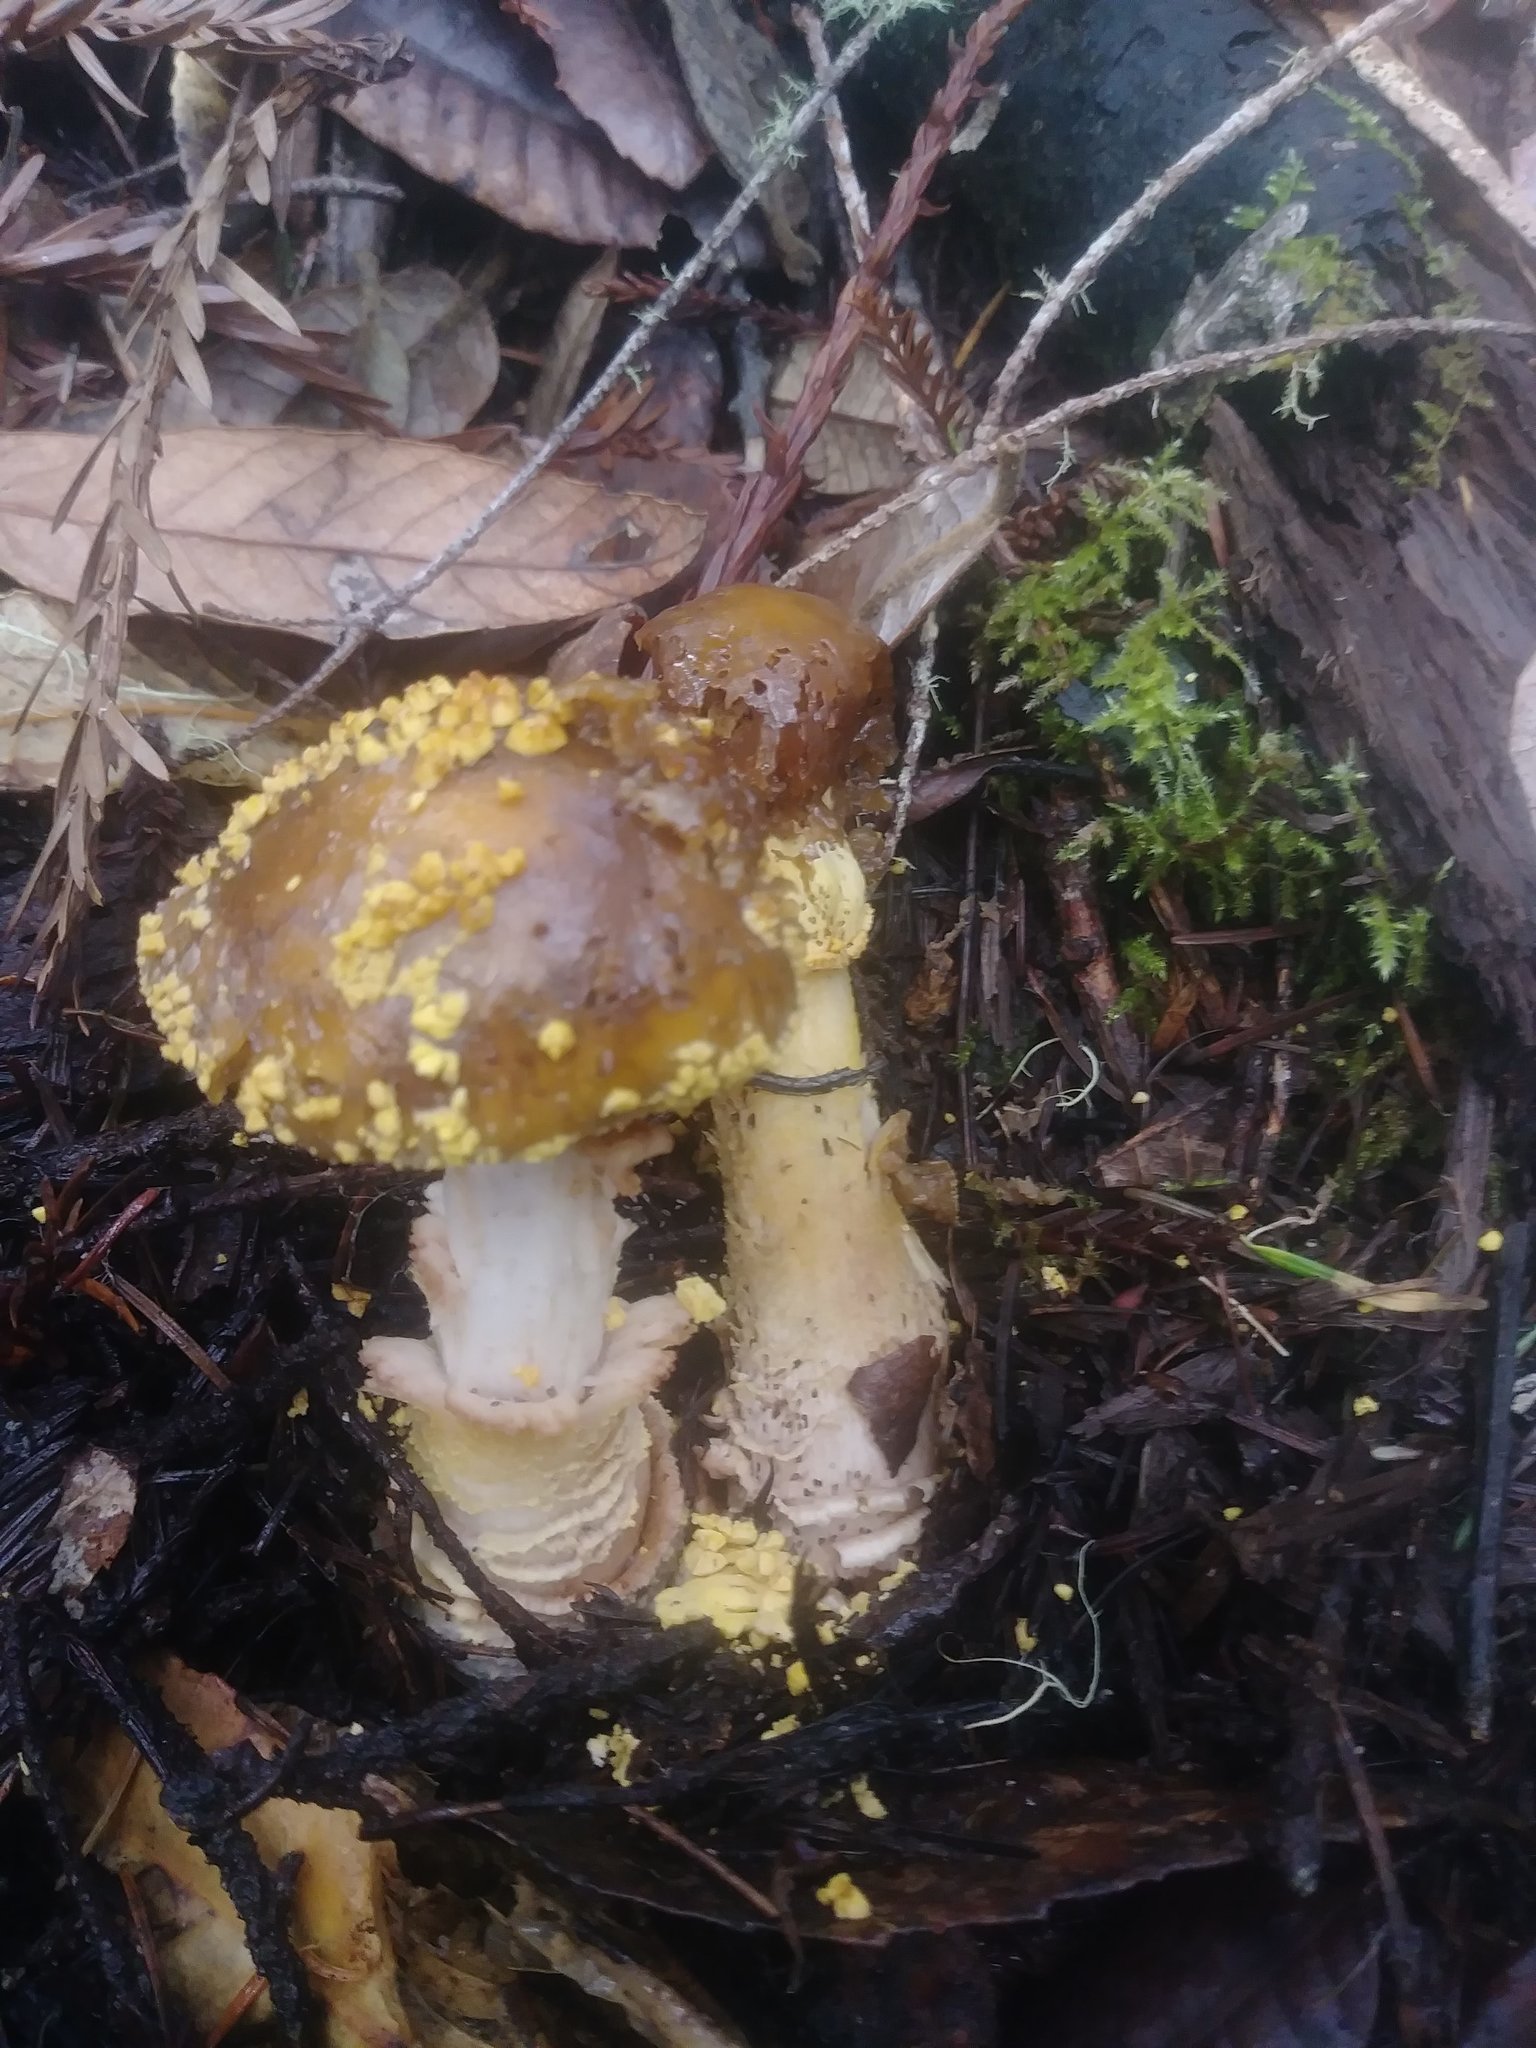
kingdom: Fungi
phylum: Basidiomycota
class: Agaricomycetes
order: Agaricales
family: Amanitaceae
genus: Amanita
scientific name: Amanita augusta
